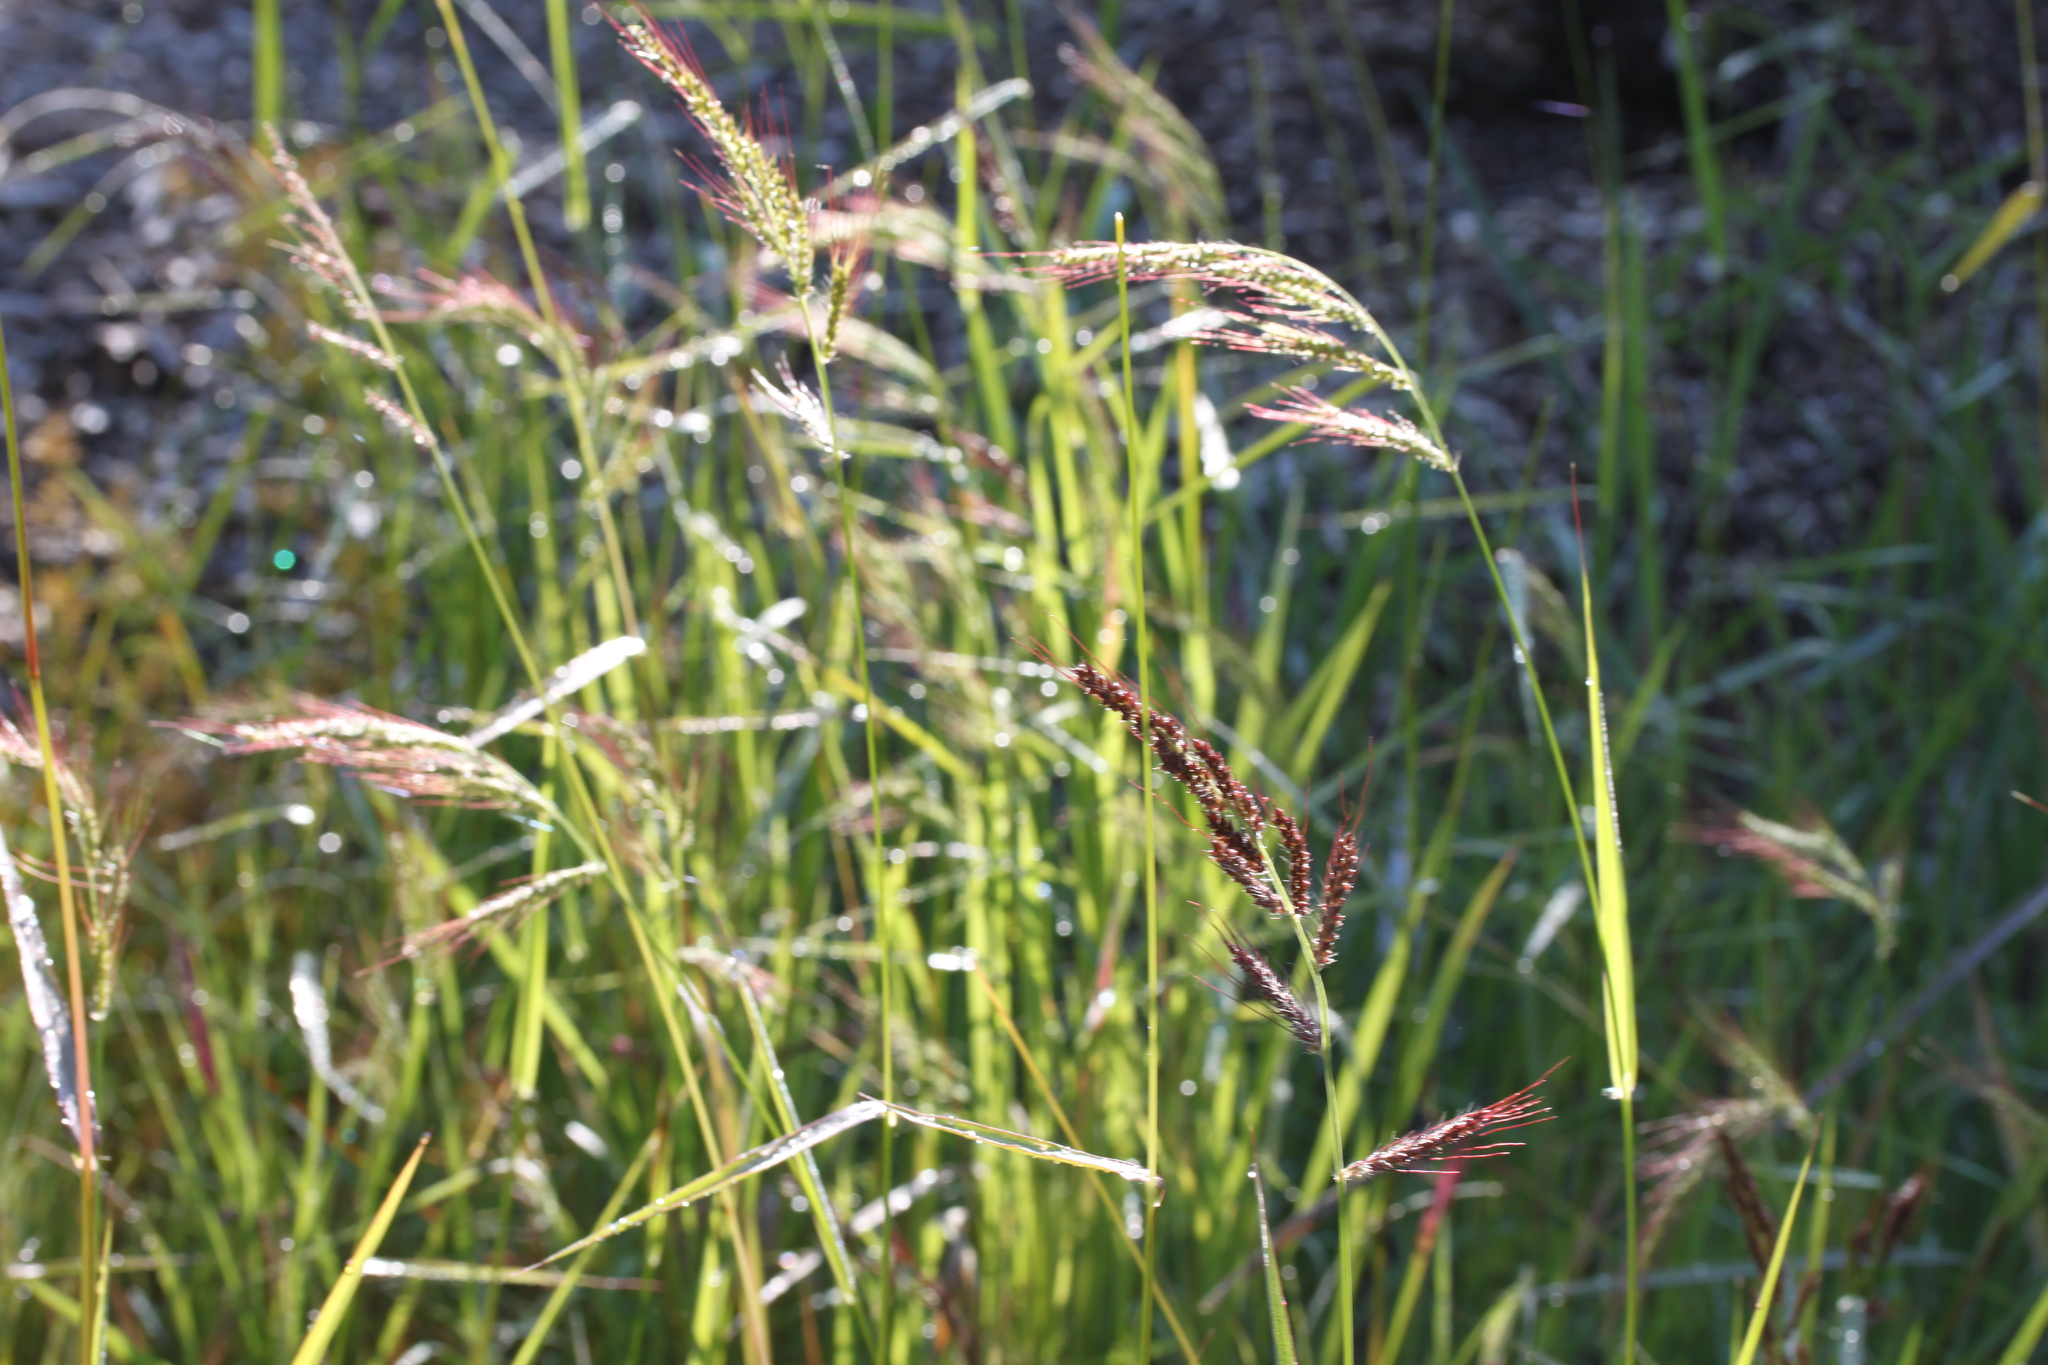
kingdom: Plantae
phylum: Tracheophyta
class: Liliopsida
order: Poales
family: Poaceae
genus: Echinochloa
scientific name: Echinochloa crus-galli
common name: Cockspur
